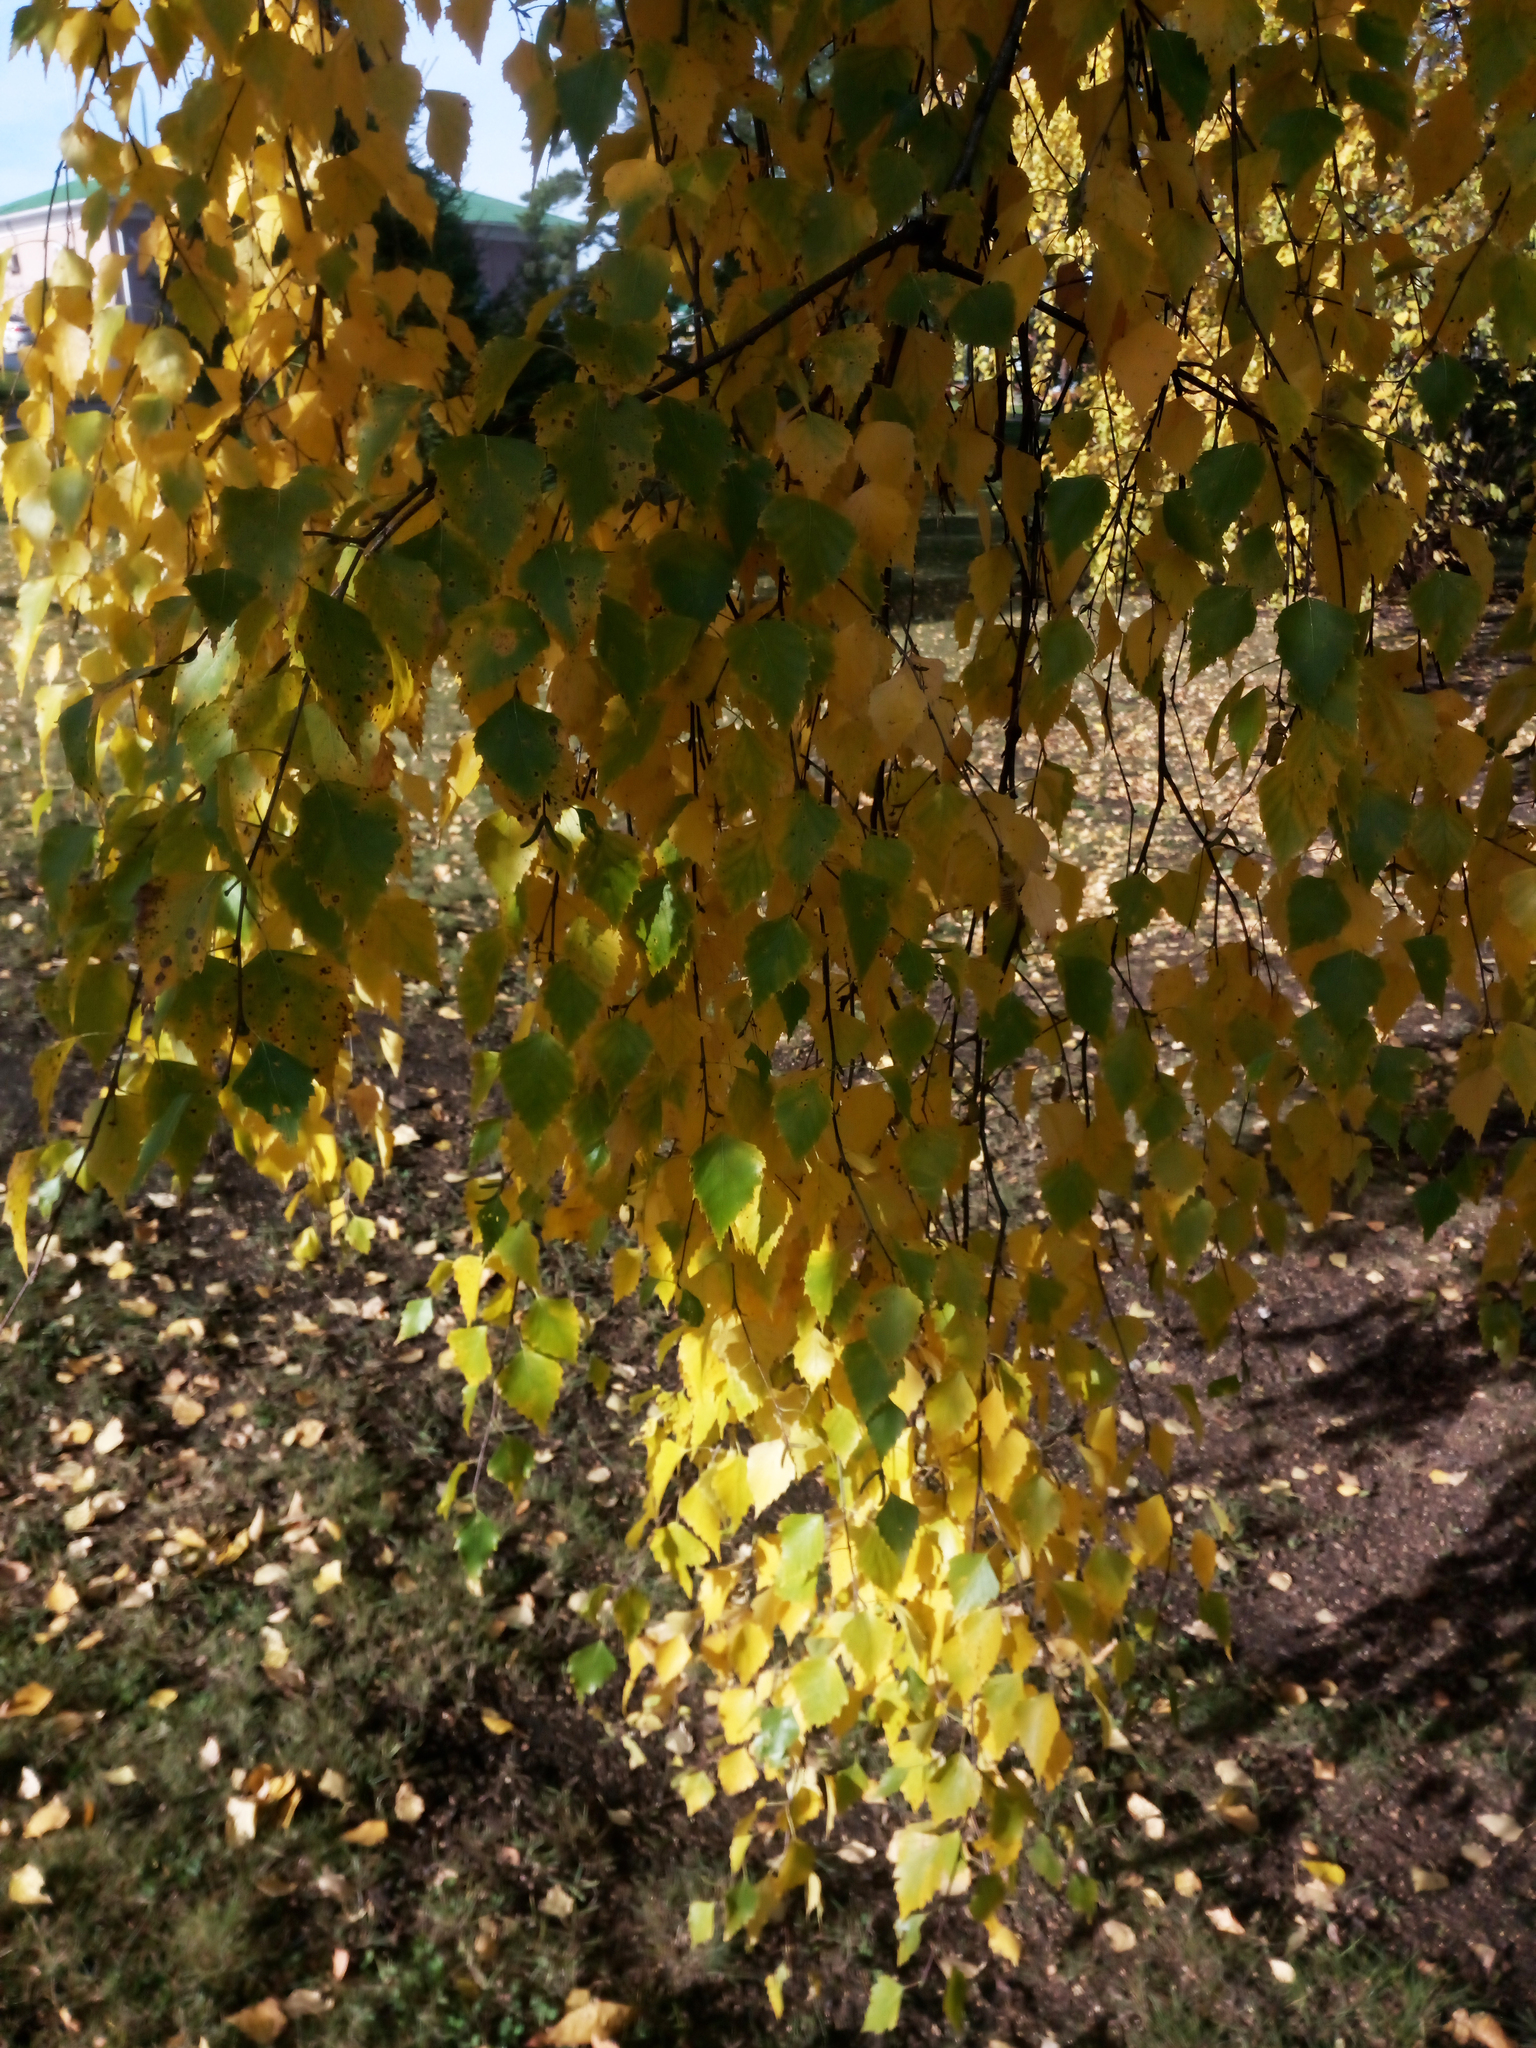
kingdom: Plantae
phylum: Tracheophyta
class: Magnoliopsida
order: Fagales
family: Betulaceae
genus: Betula
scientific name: Betula pendula
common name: Silver birch
